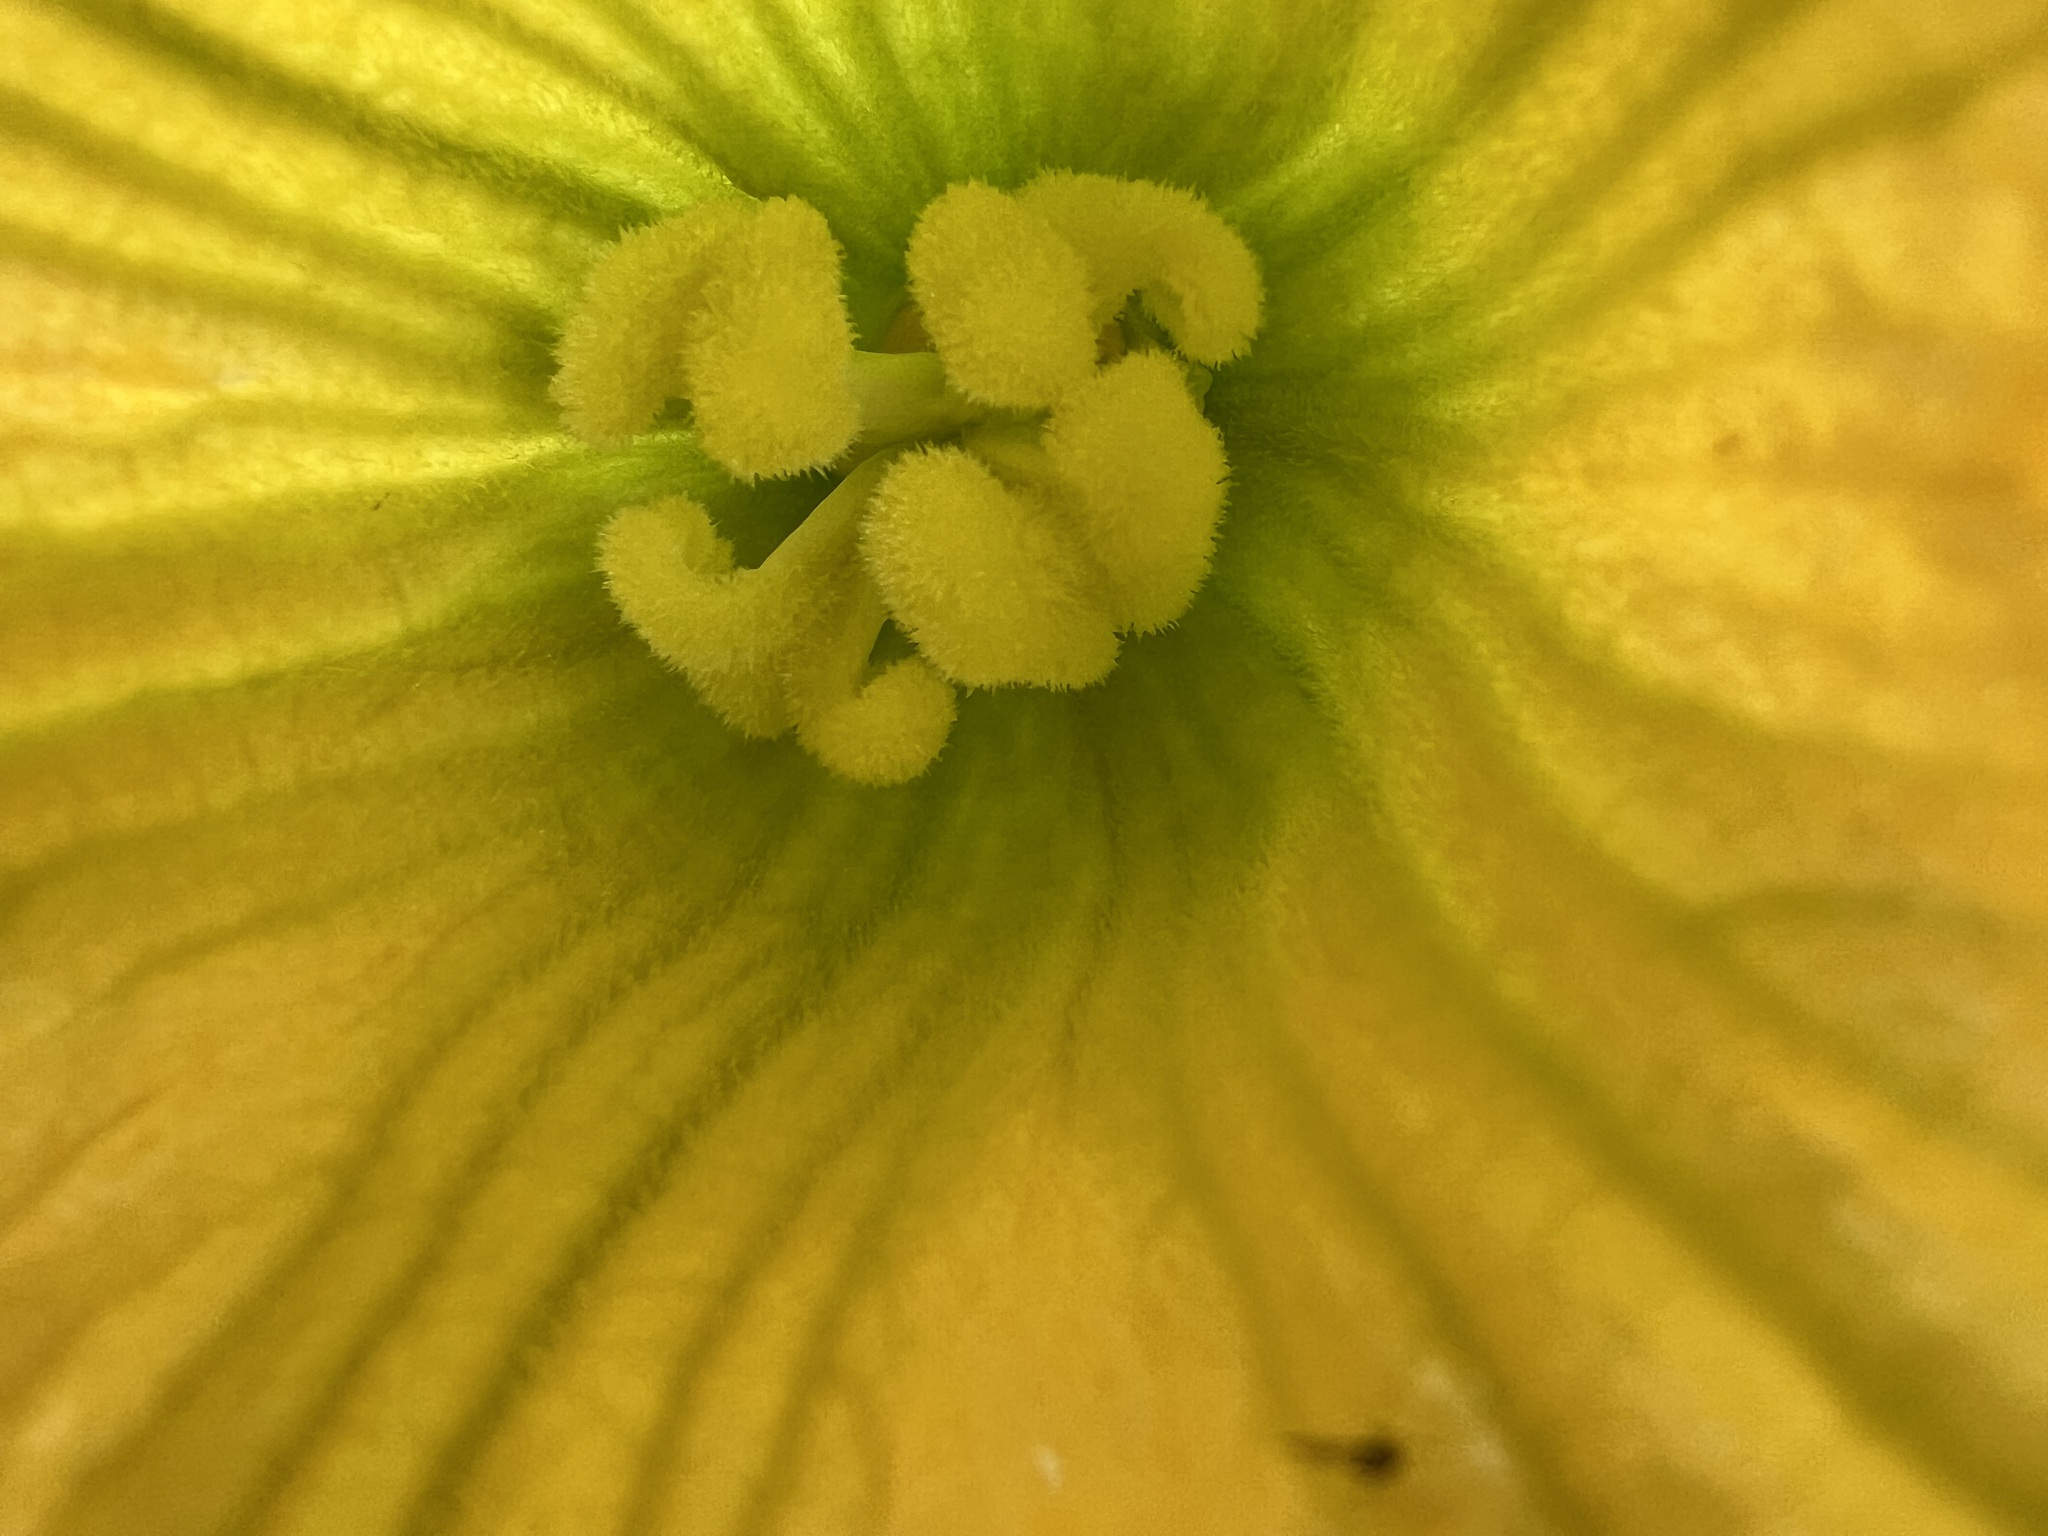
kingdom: Plantae
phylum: Tracheophyta
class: Magnoliopsida
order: Cucurbitales
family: Cucurbitaceae
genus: Cucurbita
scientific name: Cucurbita foetidissima
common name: Buffalo gourd
